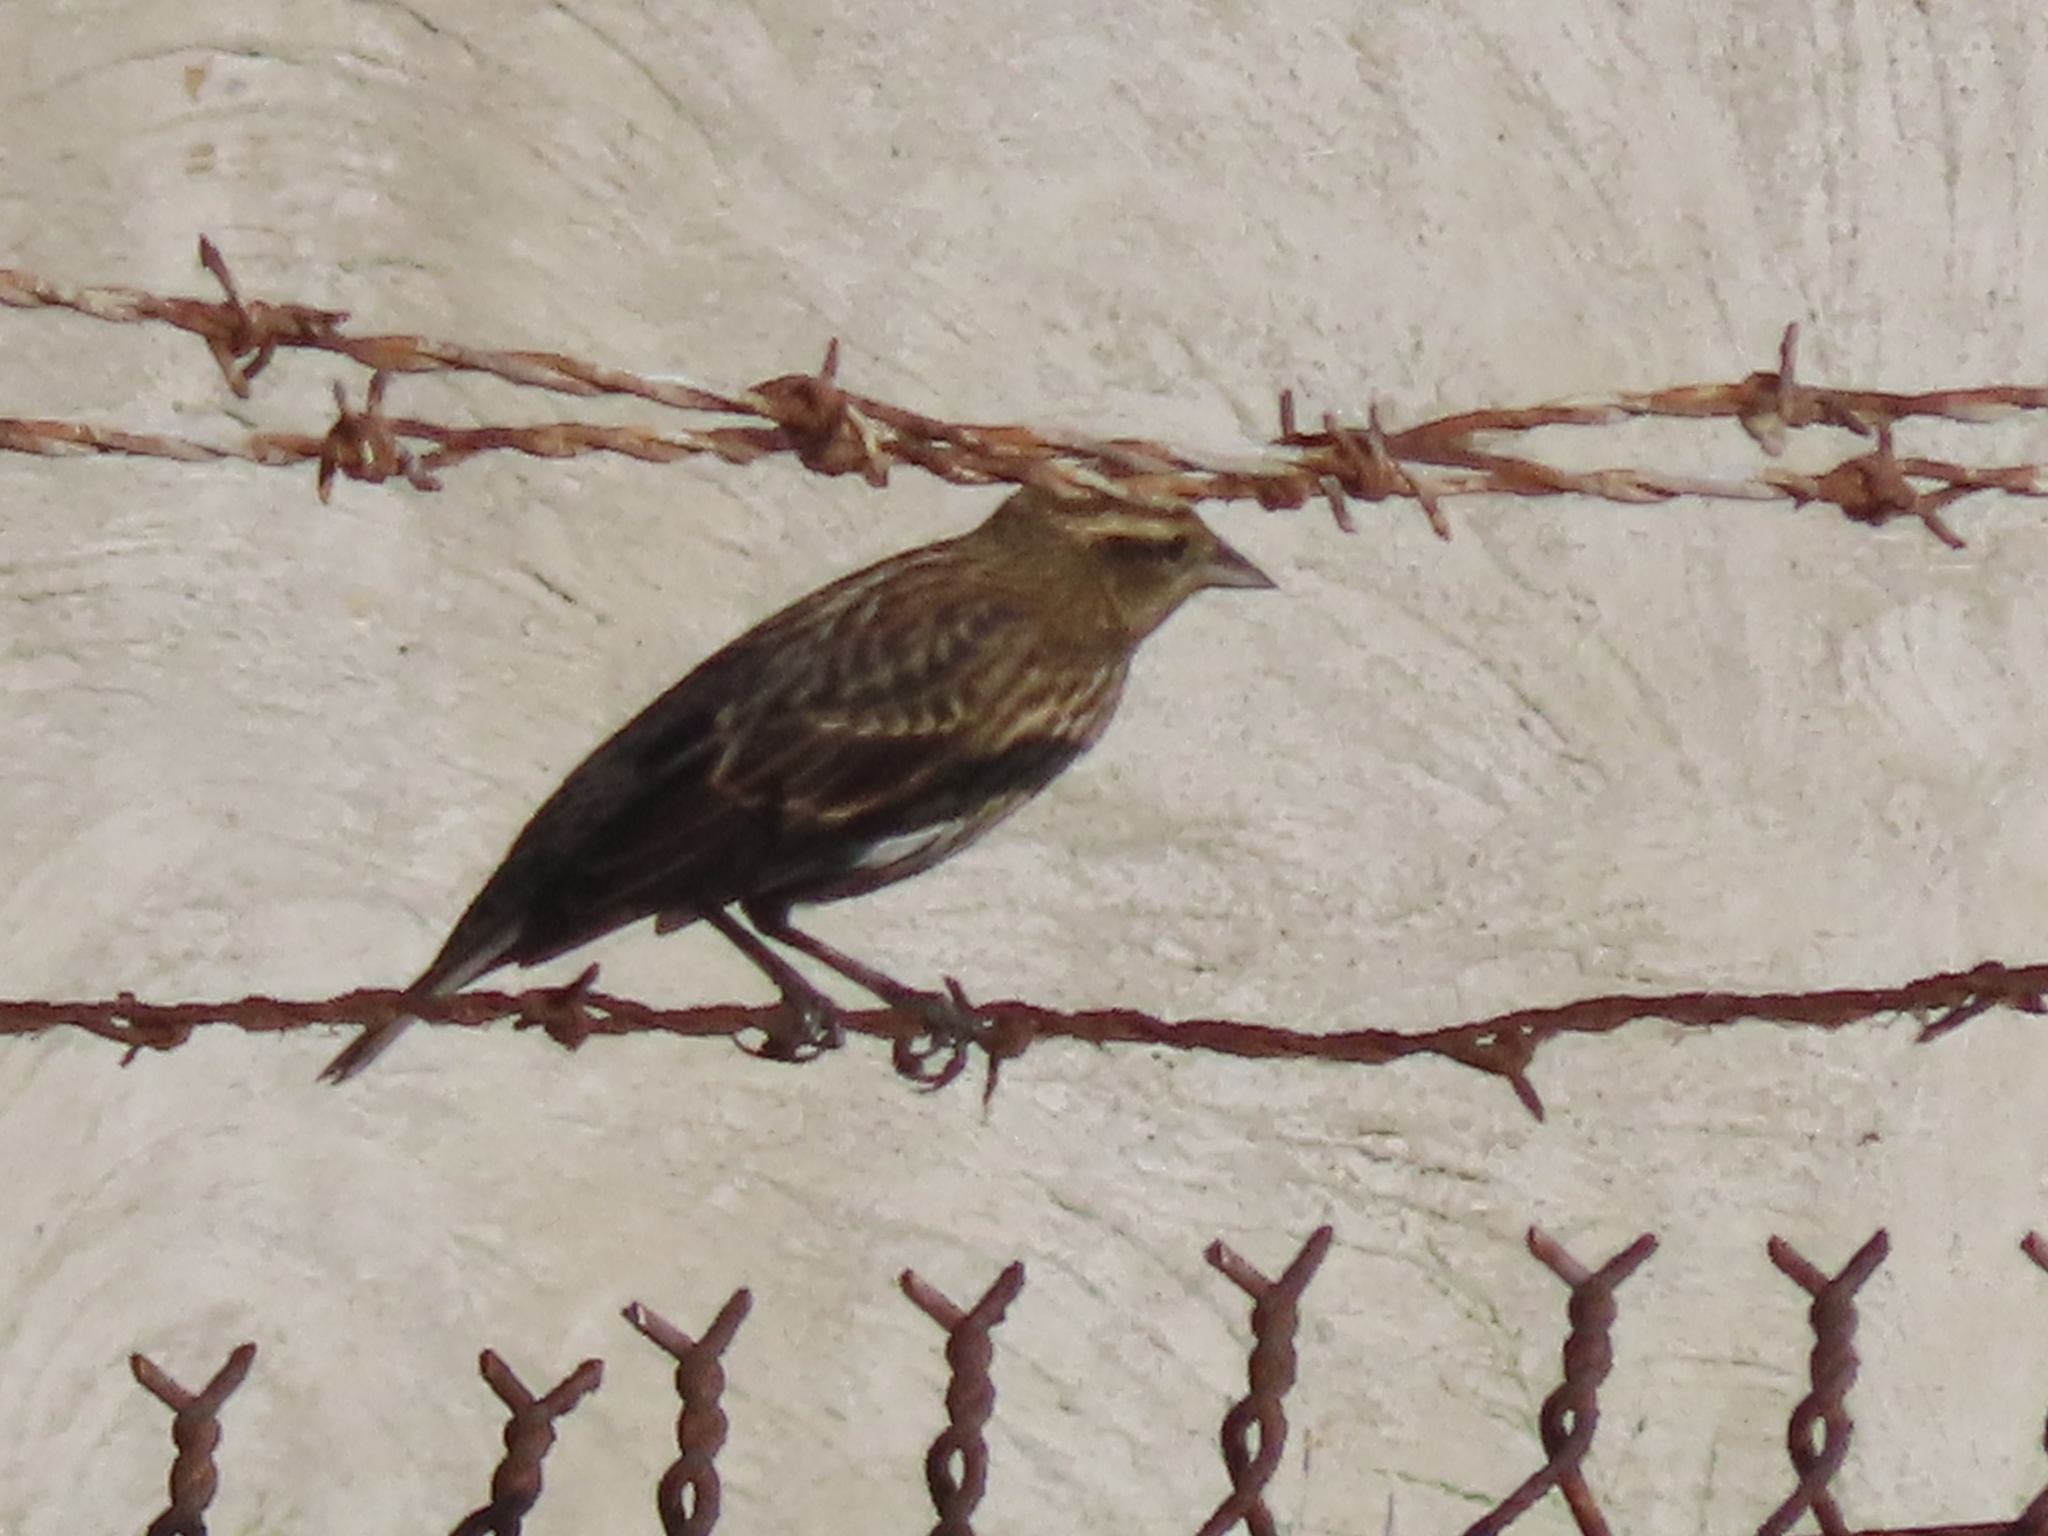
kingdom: Animalia
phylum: Chordata
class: Aves
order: Passeriformes
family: Icteridae
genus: Agelaius
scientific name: Agelaius phoeniceus
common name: Red-winged blackbird
